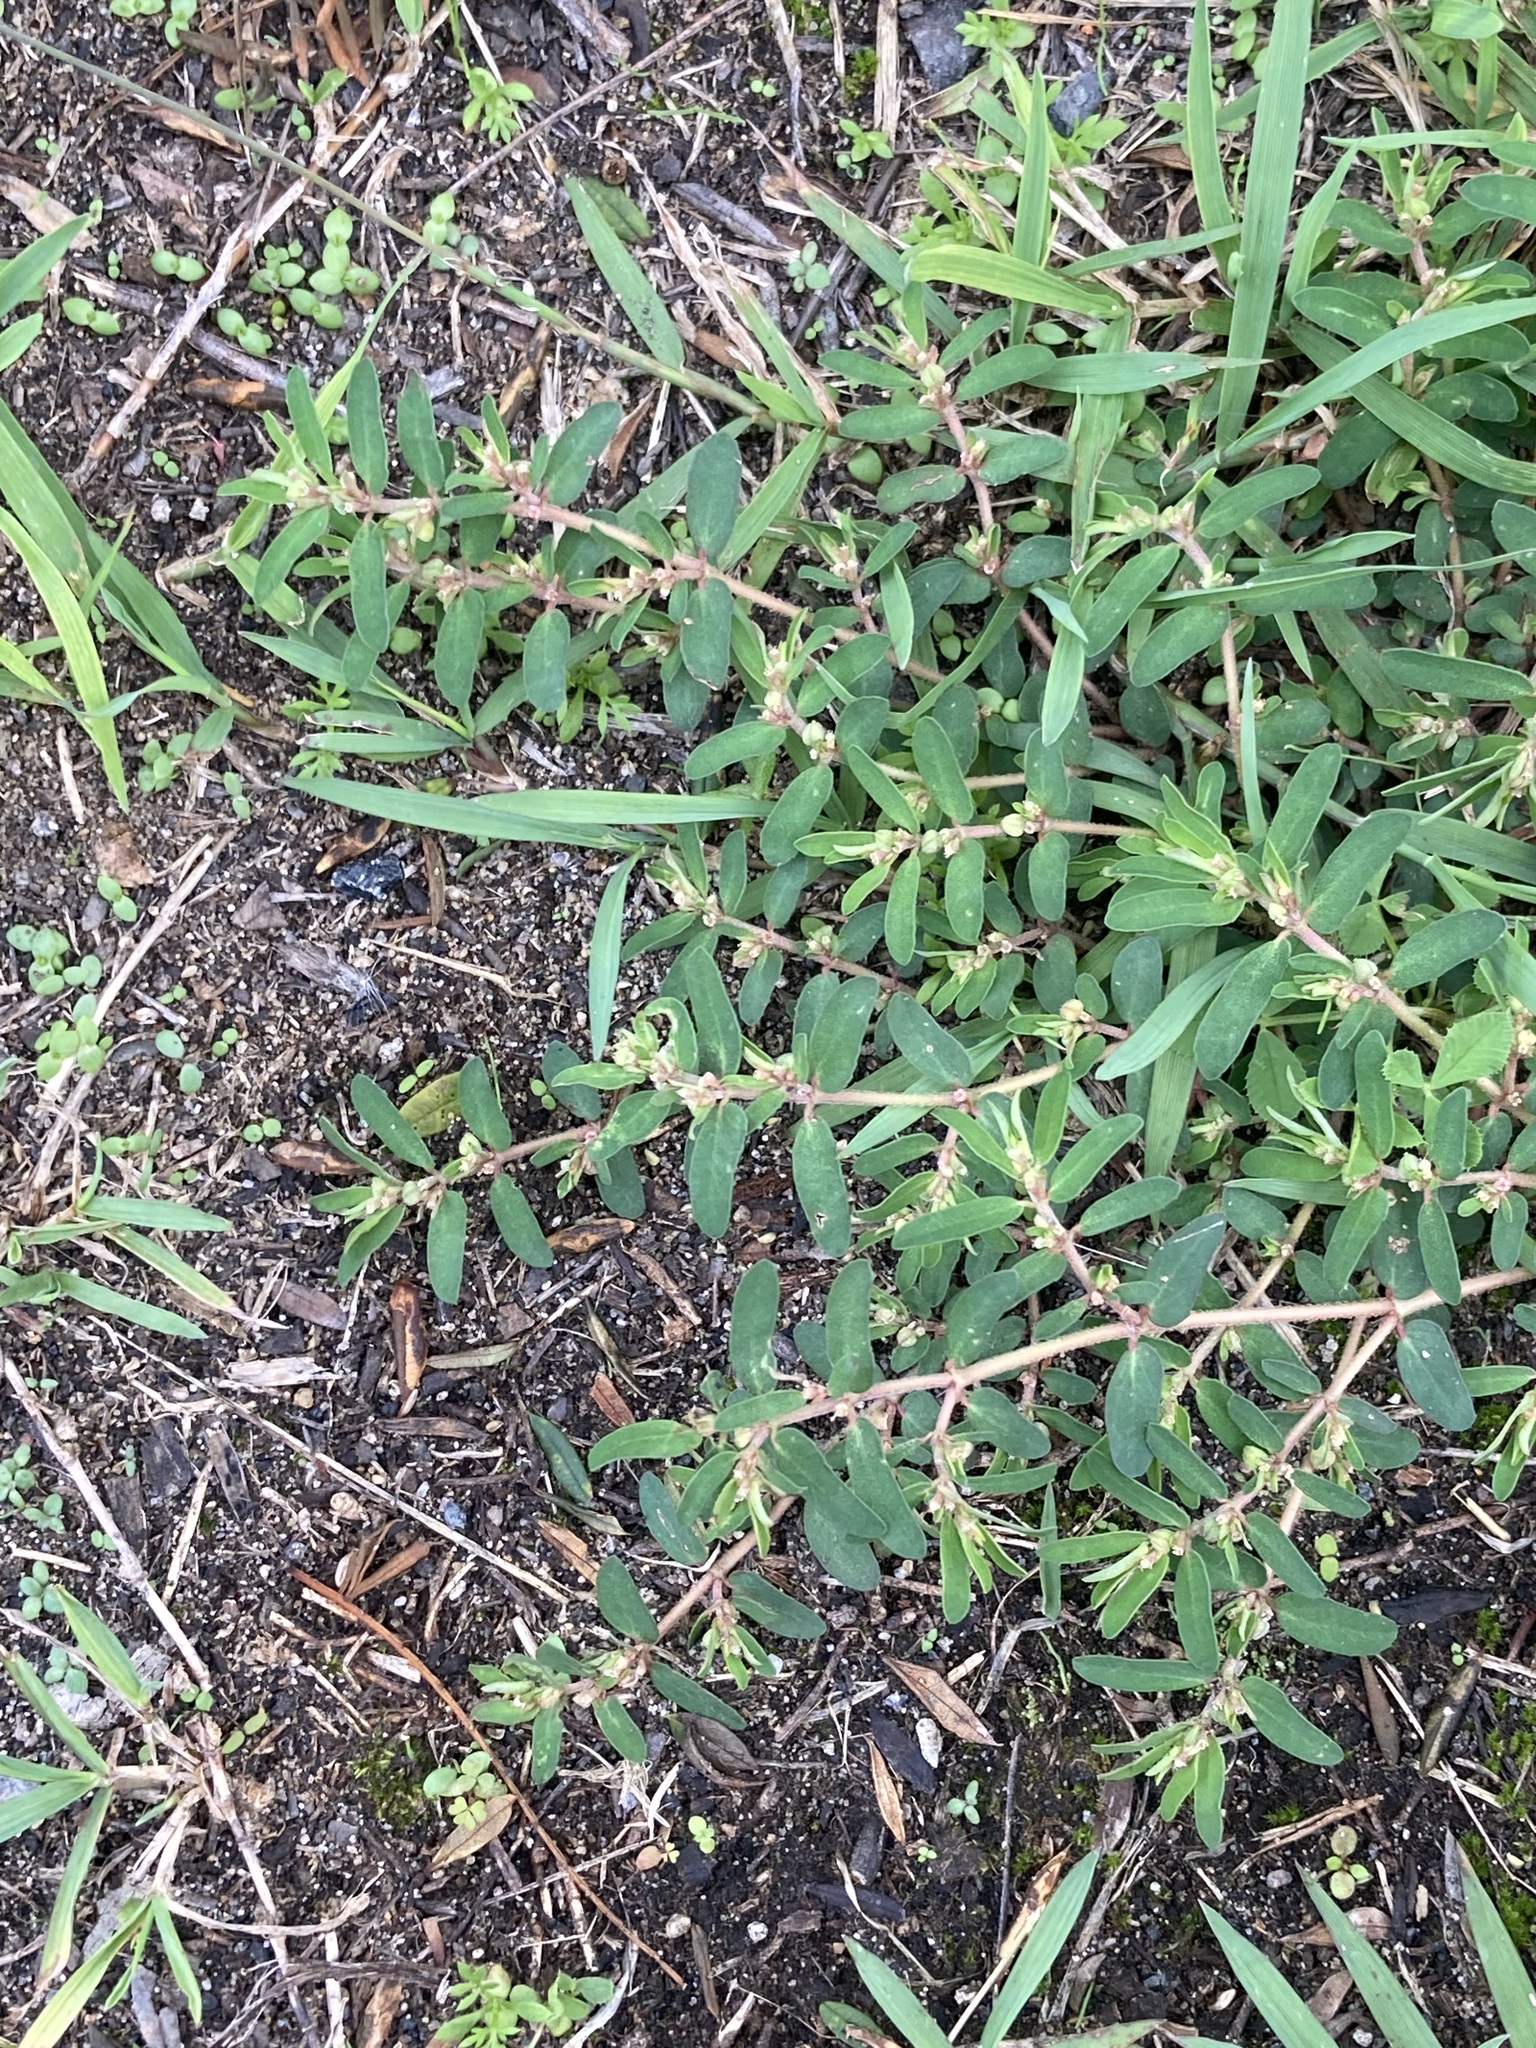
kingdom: Plantae
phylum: Tracheophyta
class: Magnoliopsida
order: Malpighiales
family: Euphorbiaceae
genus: Euphorbia
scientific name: Euphorbia maculata
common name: Spotted spurge
